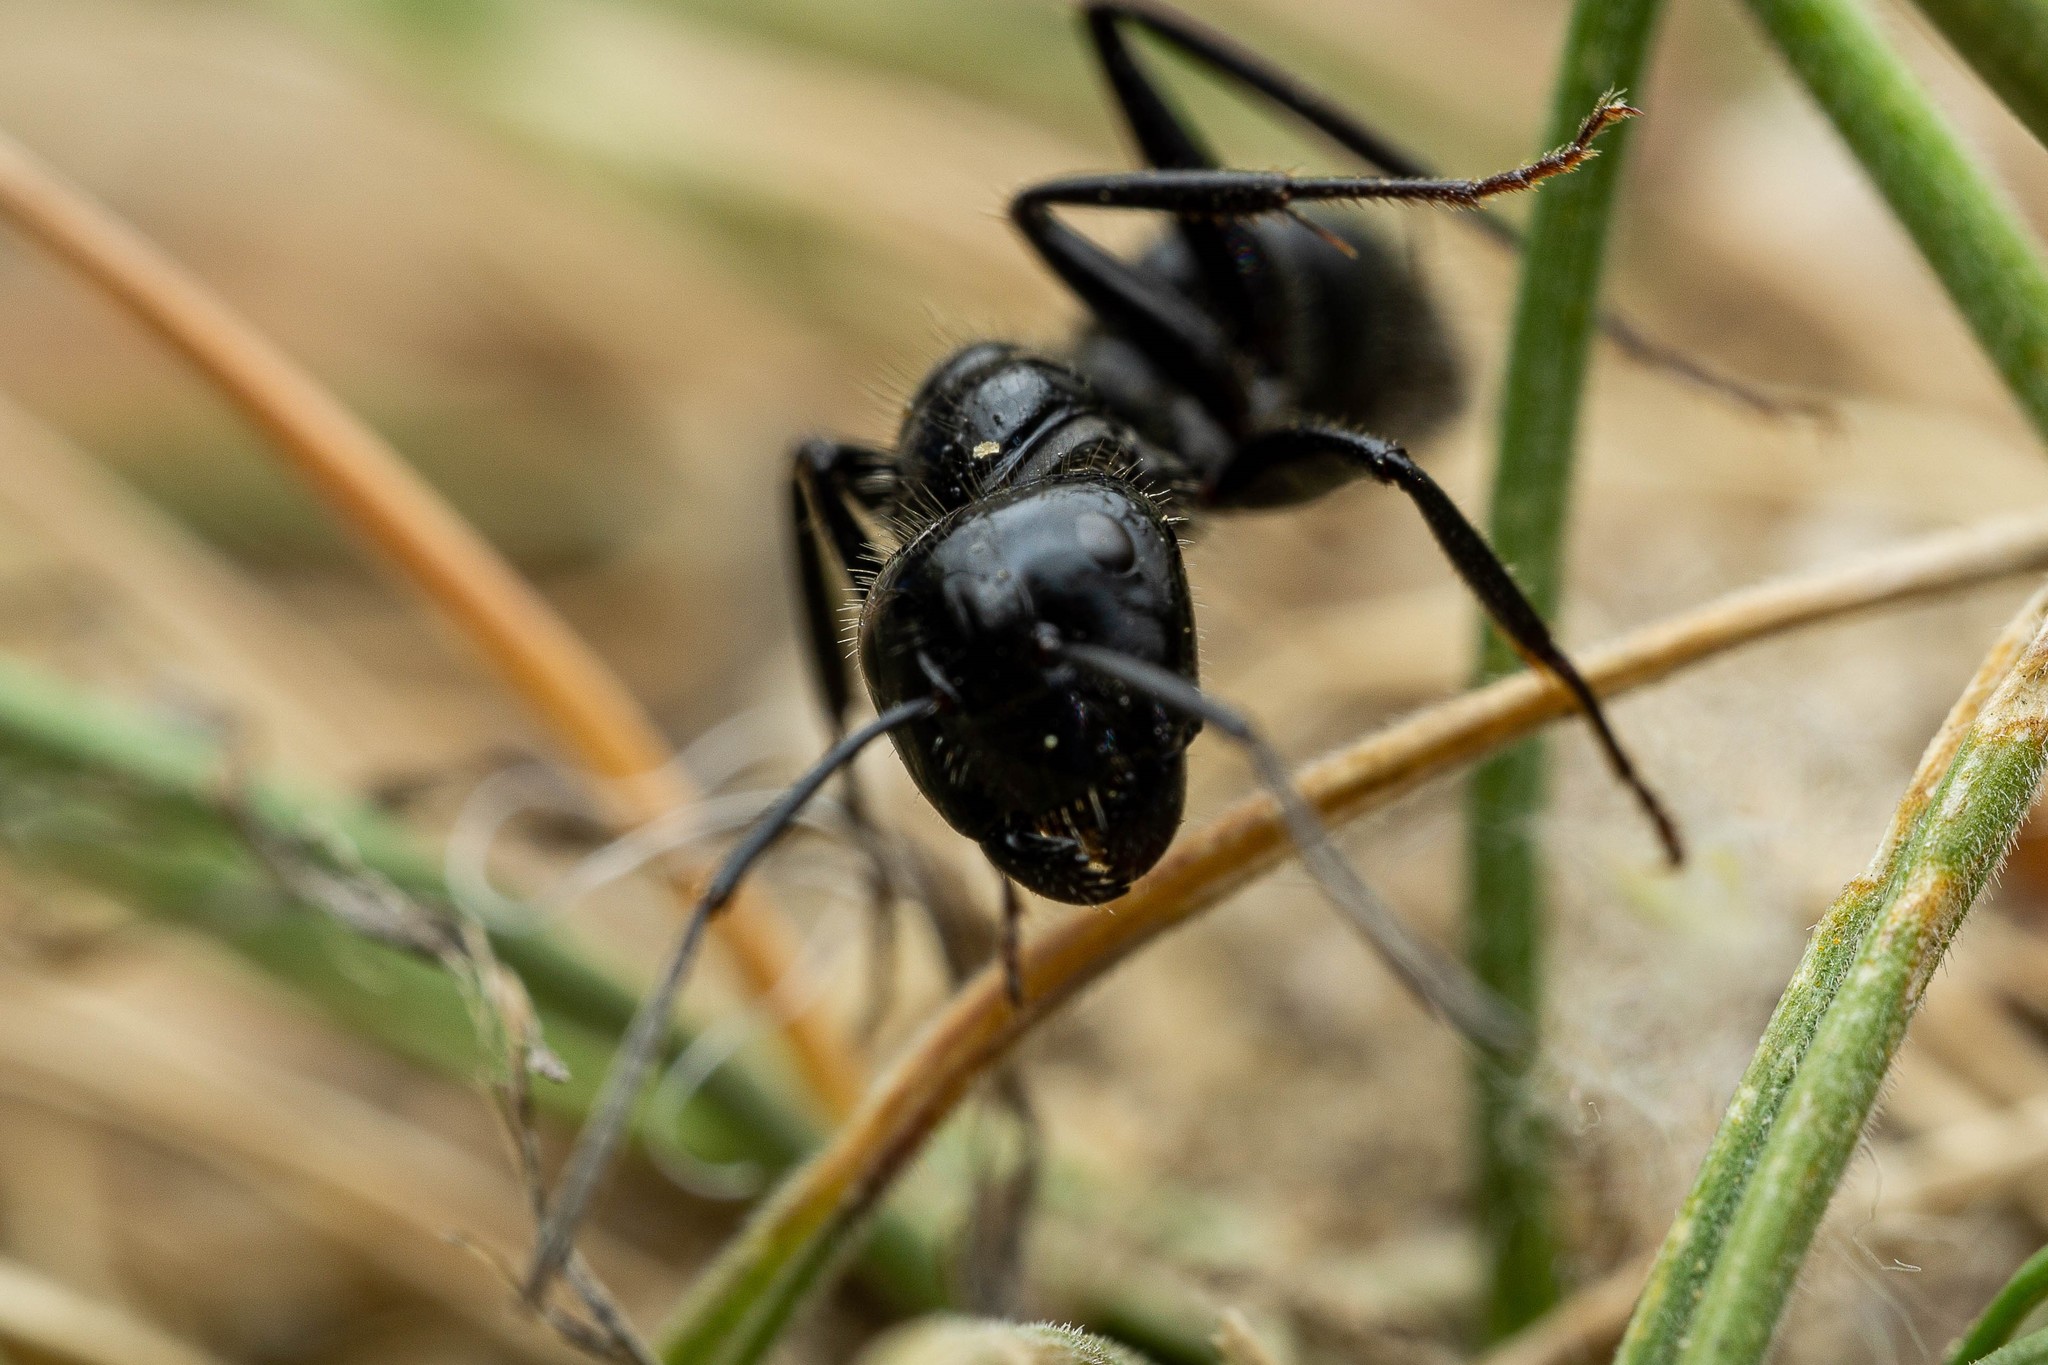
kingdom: Animalia
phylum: Arthropoda
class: Insecta
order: Hymenoptera
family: Formicidae
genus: Camponotus
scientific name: Camponotus
